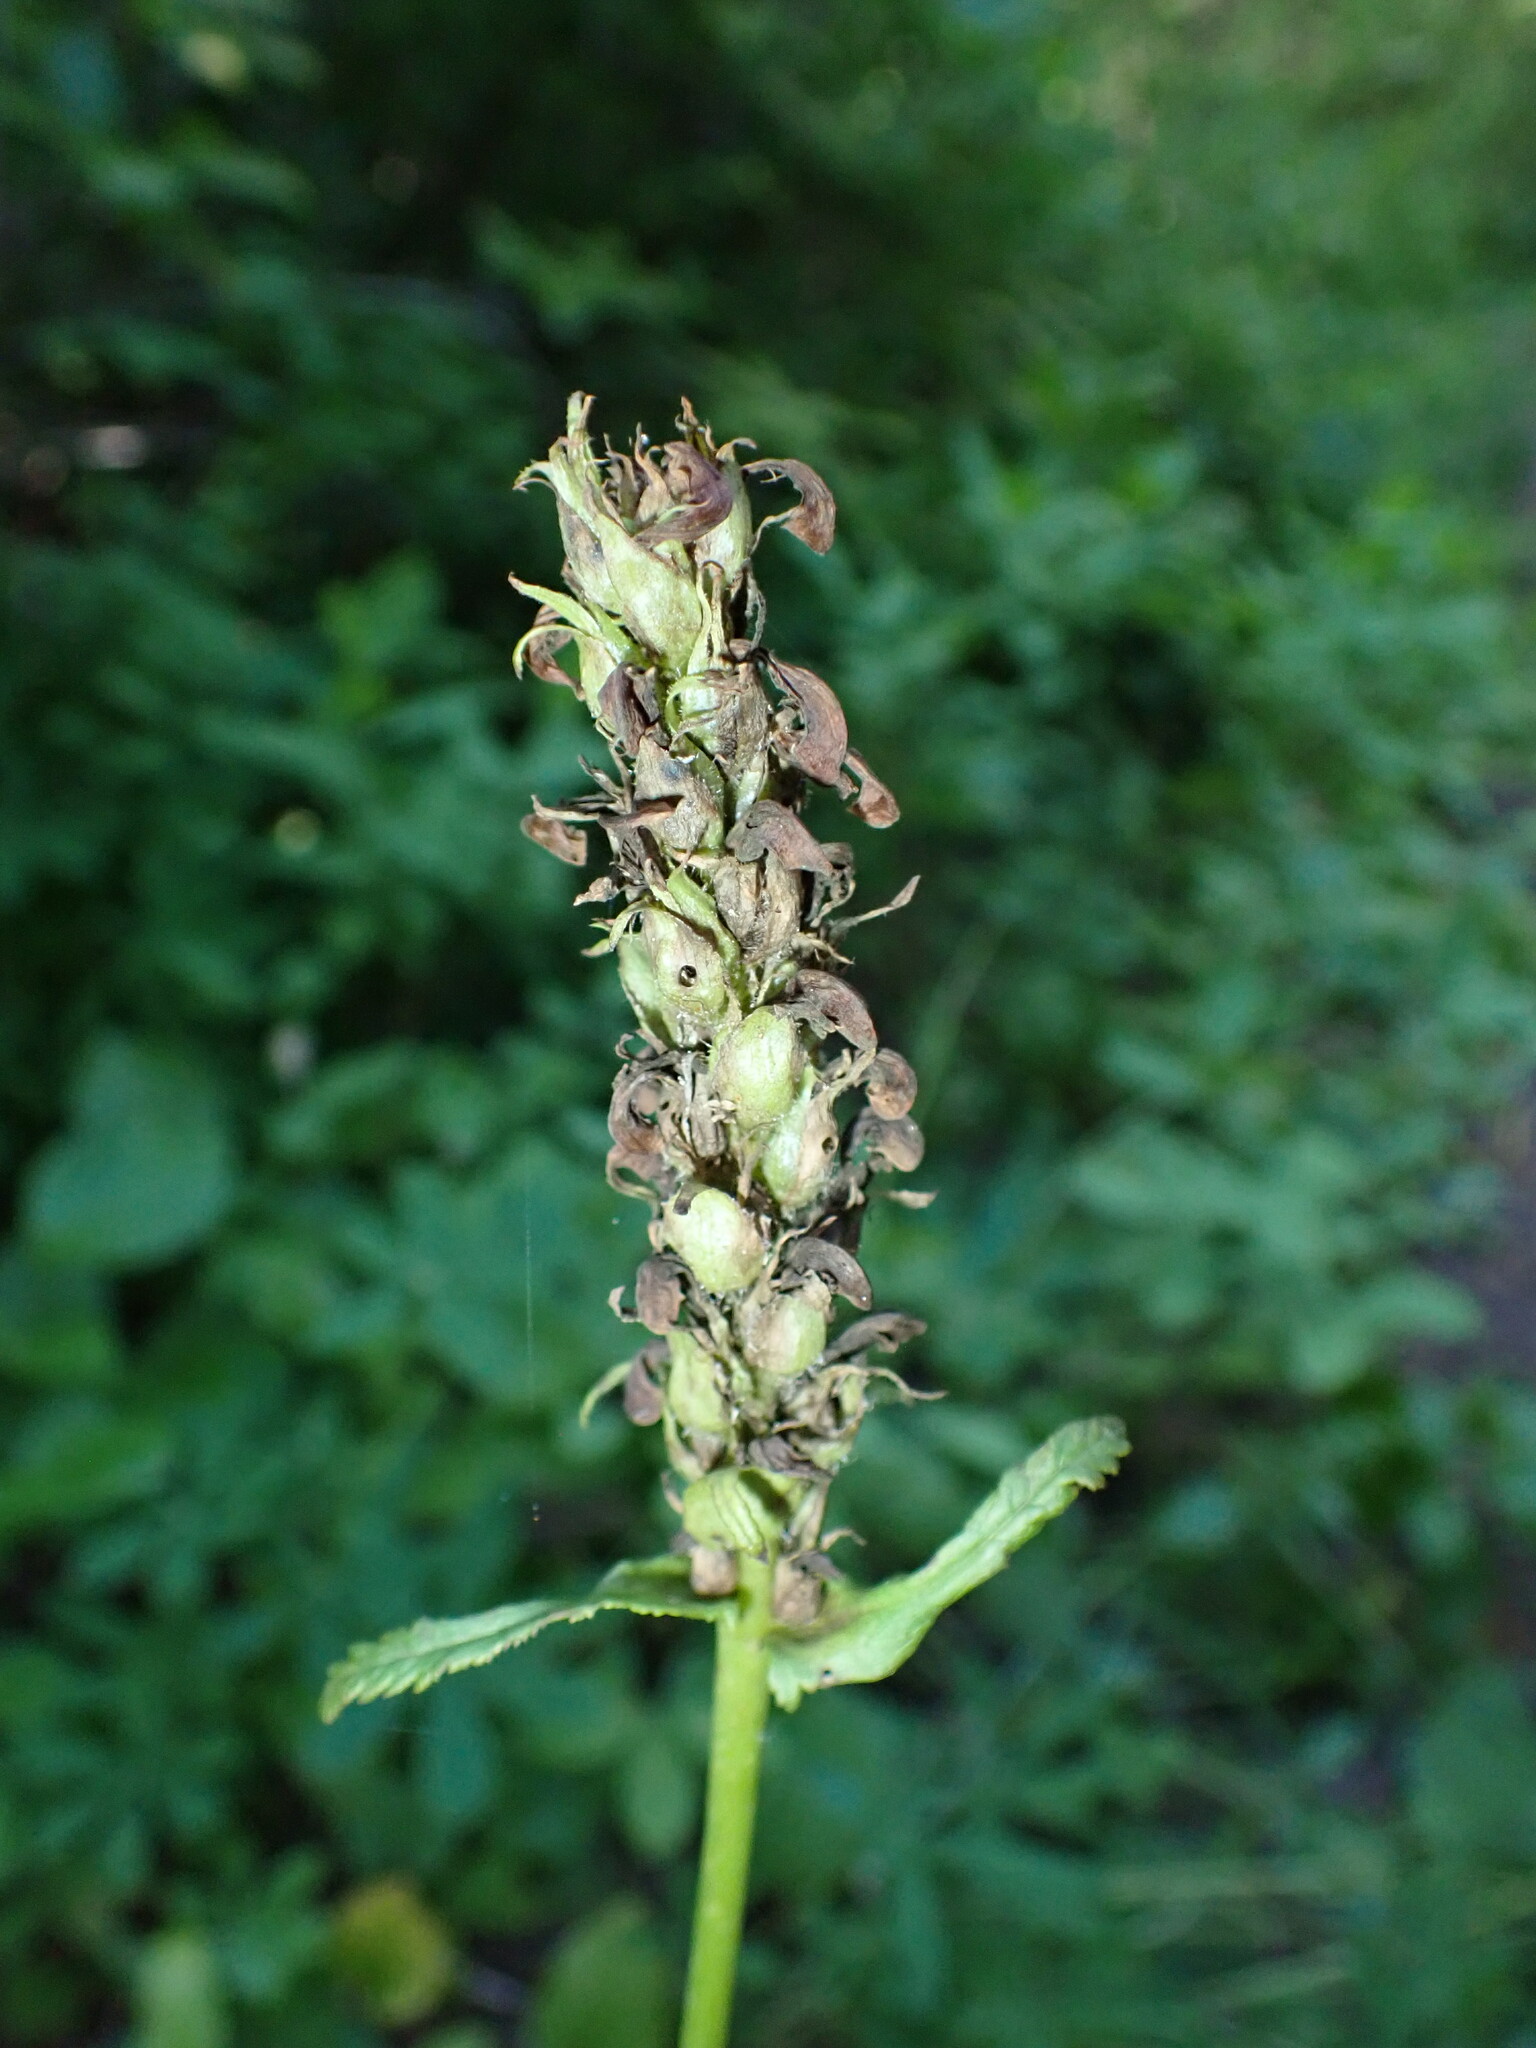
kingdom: Plantae
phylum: Tracheophyta
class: Magnoliopsida
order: Lamiales
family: Orobanchaceae
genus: Pedicularis
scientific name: Pedicularis bracteosa
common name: Bracted lousewort
